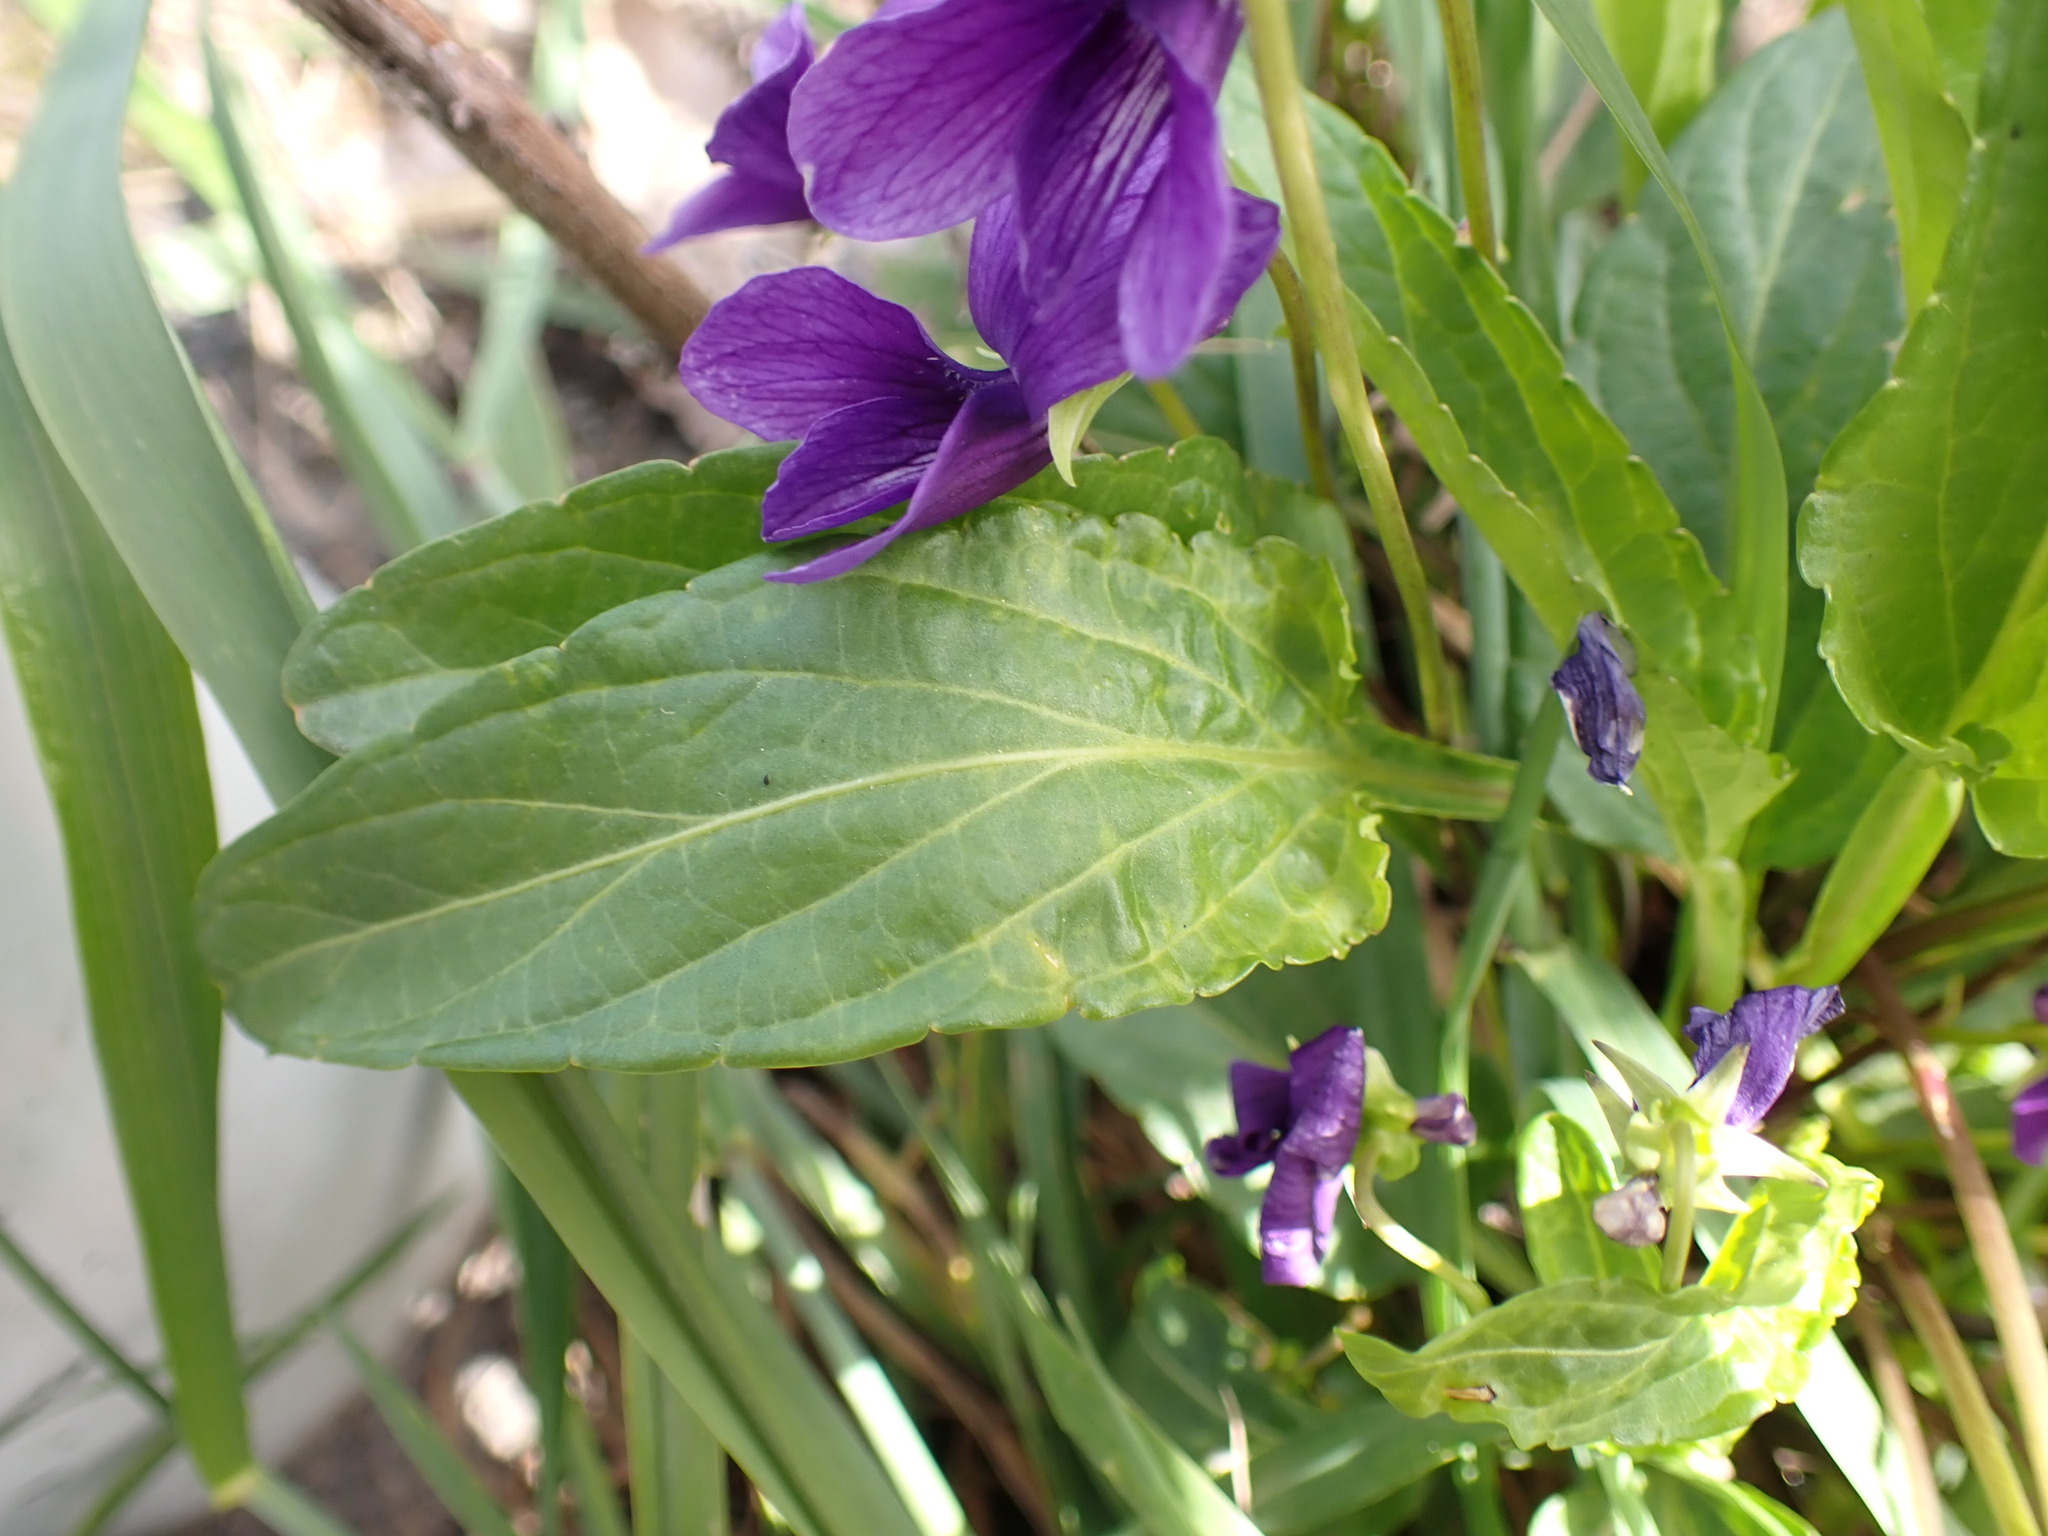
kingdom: Plantae
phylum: Tracheophyta
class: Magnoliopsida
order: Malpighiales
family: Violaceae
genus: Viola
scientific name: Viola mandshurica
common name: Manchuria violet
